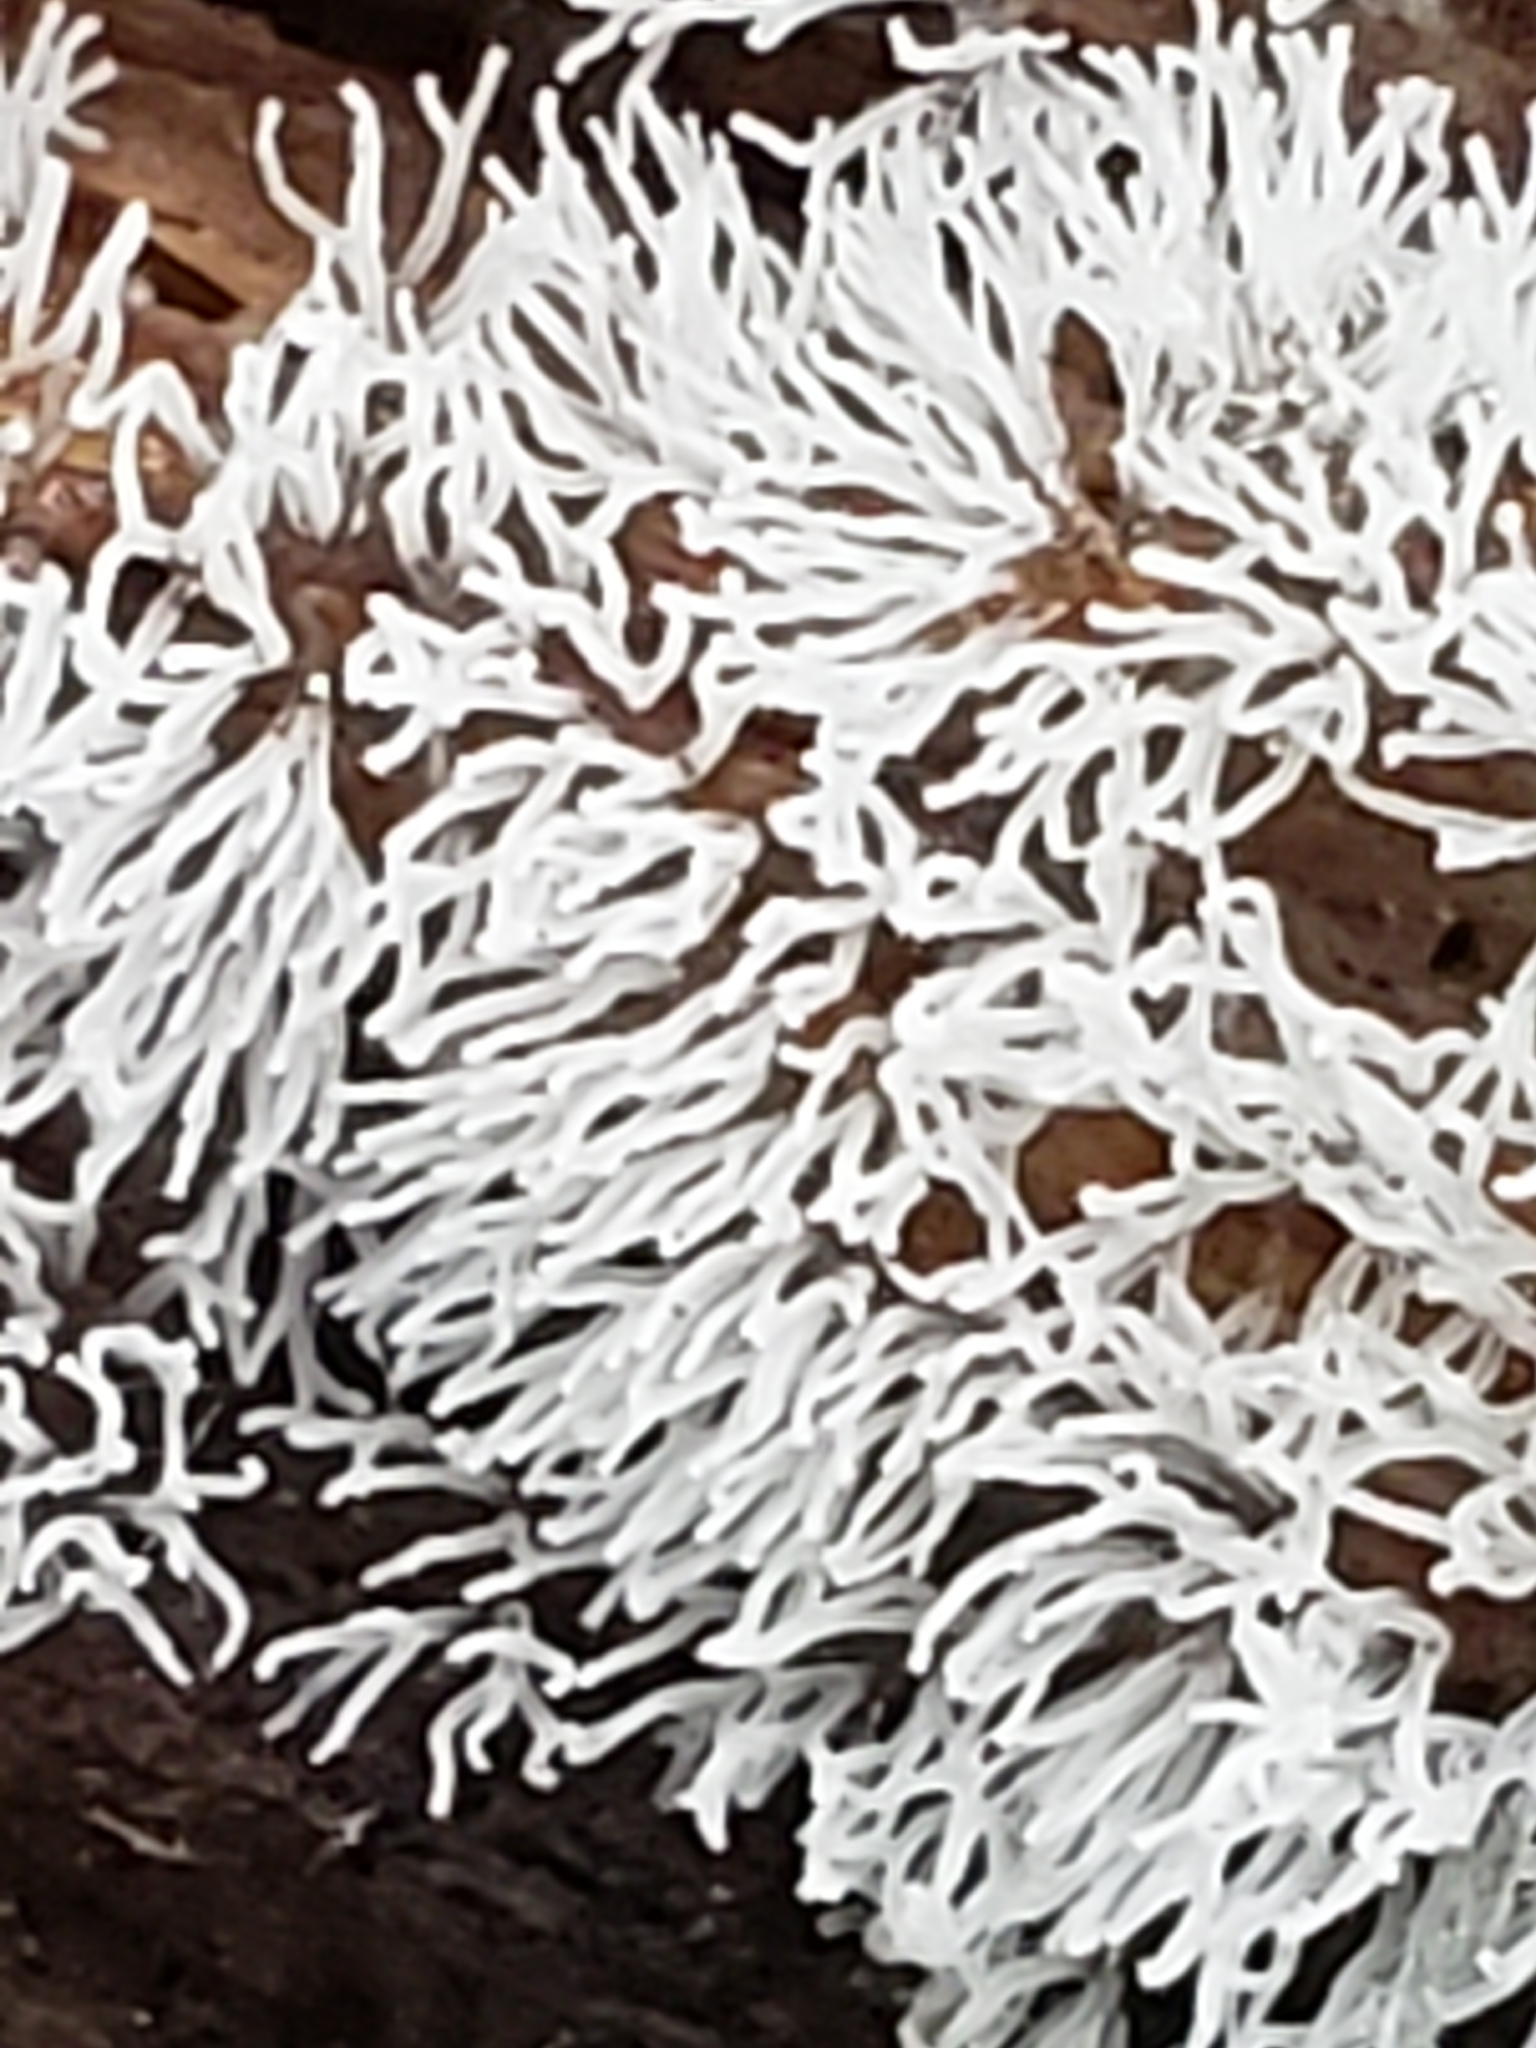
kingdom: Protozoa
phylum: Mycetozoa
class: Protosteliomycetes
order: Ceratiomyxales
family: Ceratiomyxaceae
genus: Ceratiomyxa
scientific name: Ceratiomyxa fruticulosa
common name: Honeycomb coral slime mold
